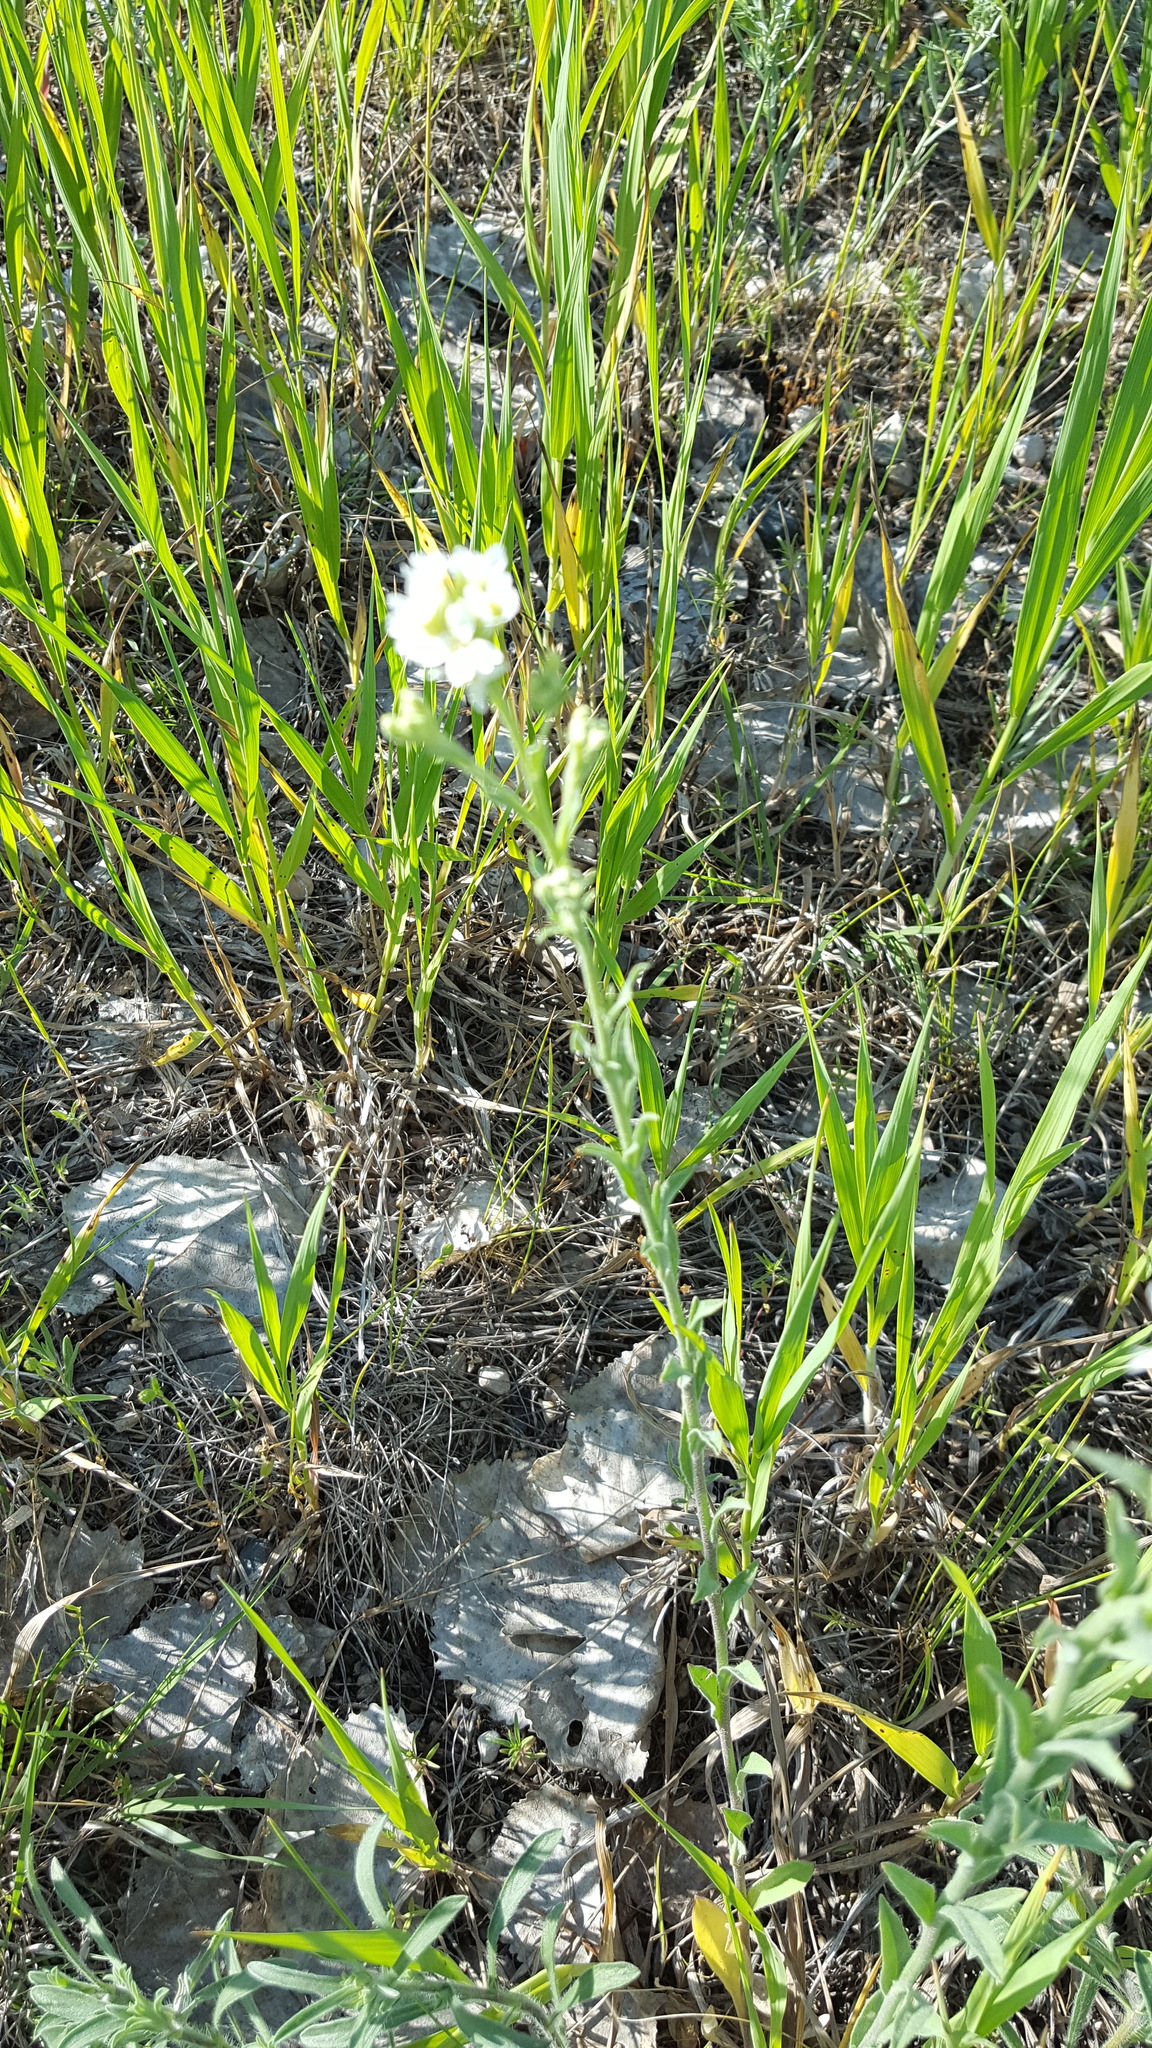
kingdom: Plantae
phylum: Tracheophyta
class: Magnoliopsida
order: Brassicales
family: Brassicaceae
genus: Berteroa
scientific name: Berteroa incana
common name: Hoary alison
